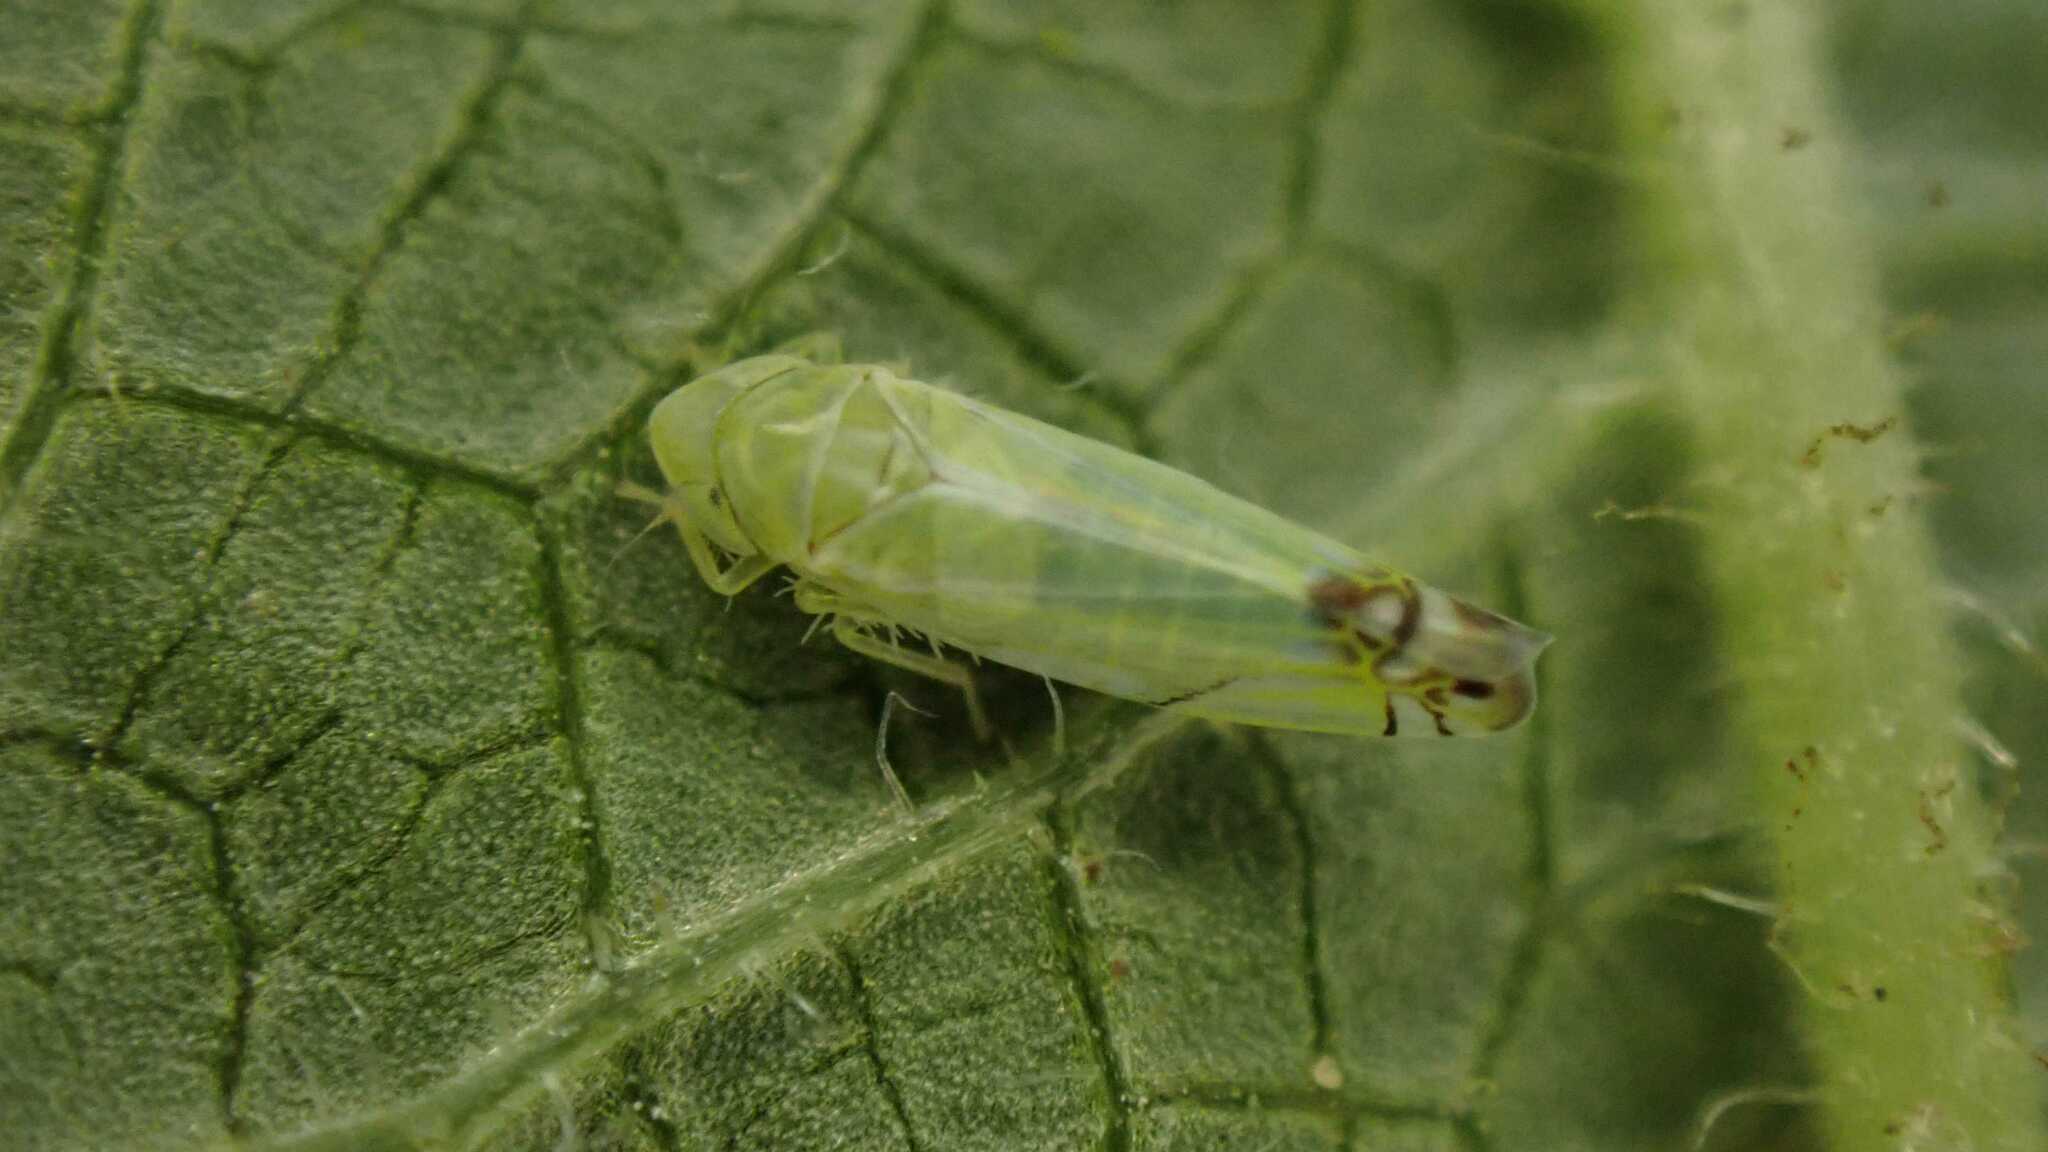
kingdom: Animalia
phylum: Arthropoda
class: Insecta
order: Hemiptera
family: Cicadellidae
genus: Zyginella
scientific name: Zyginella pulchra
